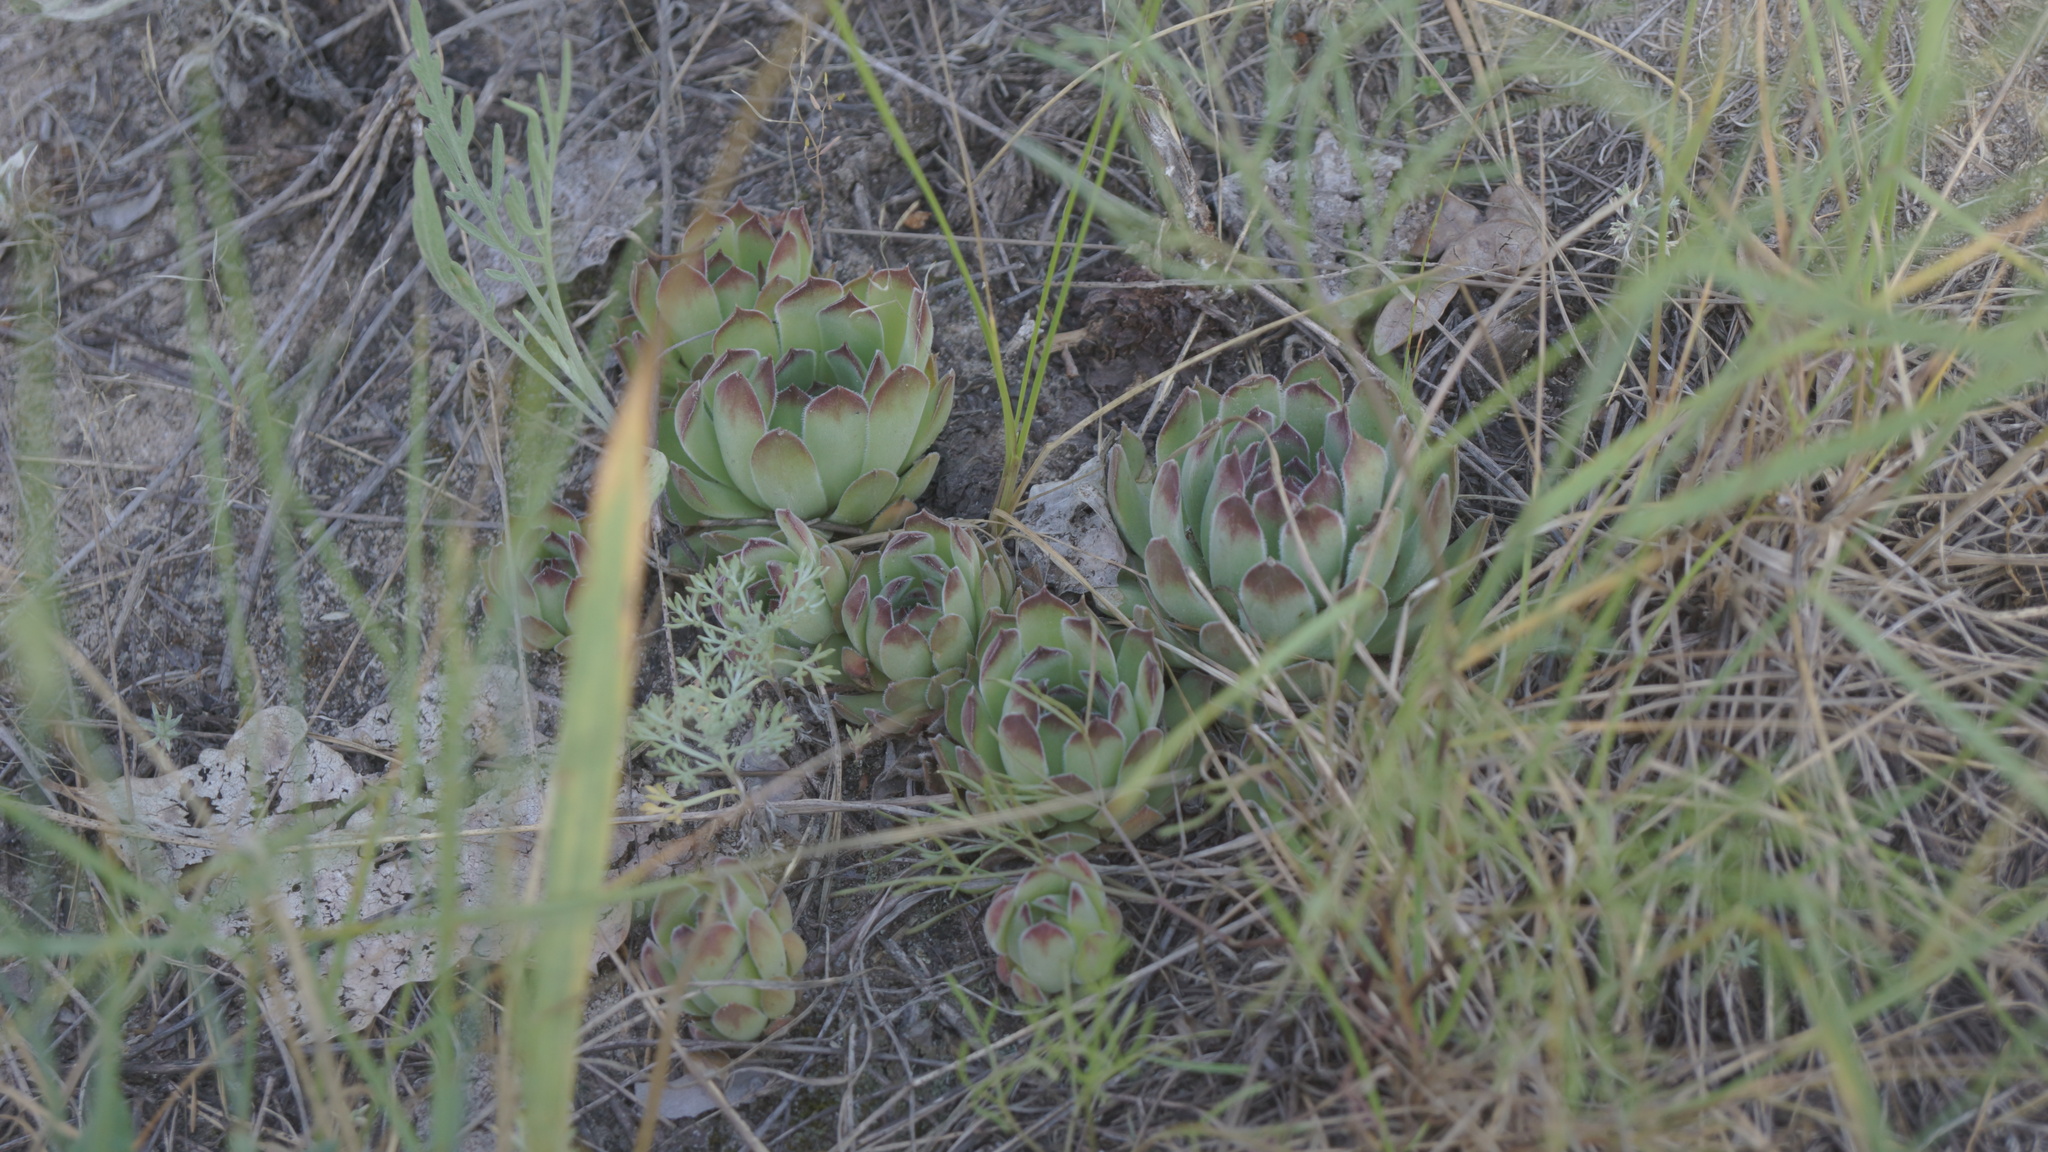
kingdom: Plantae
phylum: Tracheophyta
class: Magnoliopsida
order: Saxifragales
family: Crassulaceae
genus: Sempervivum
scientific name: Sempervivum ruthenicum
